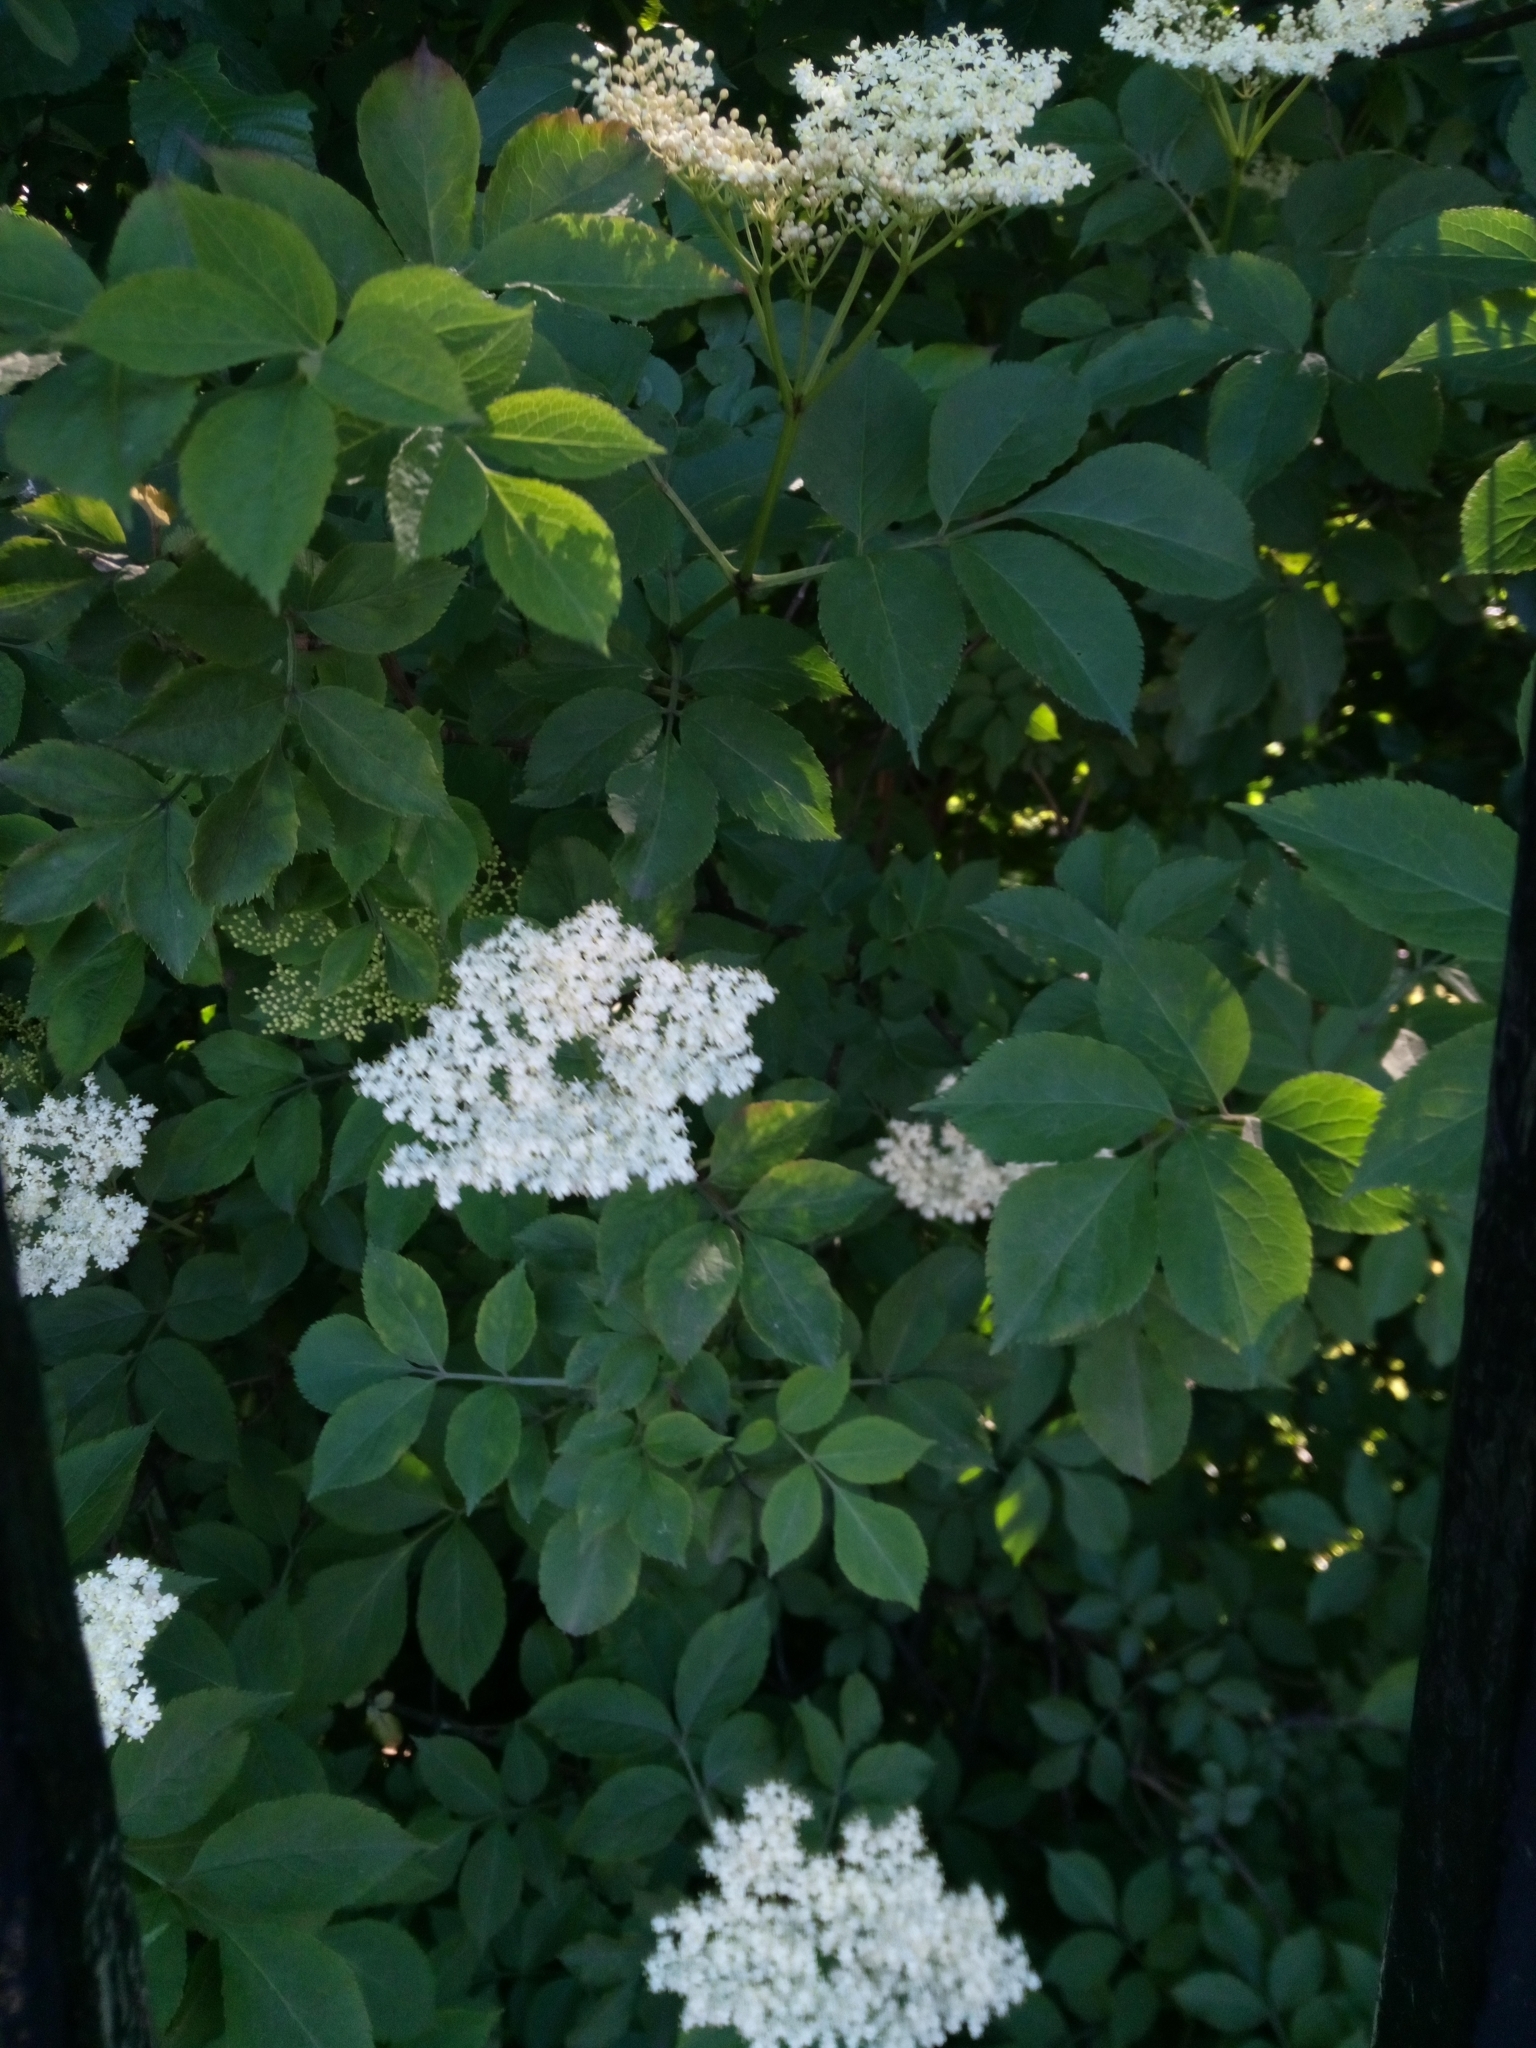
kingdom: Plantae
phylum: Tracheophyta
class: Magnoliopsida
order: Dipsacales
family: Viburnaceae
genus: Sambucus
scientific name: Sambucus nigra
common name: Elder
